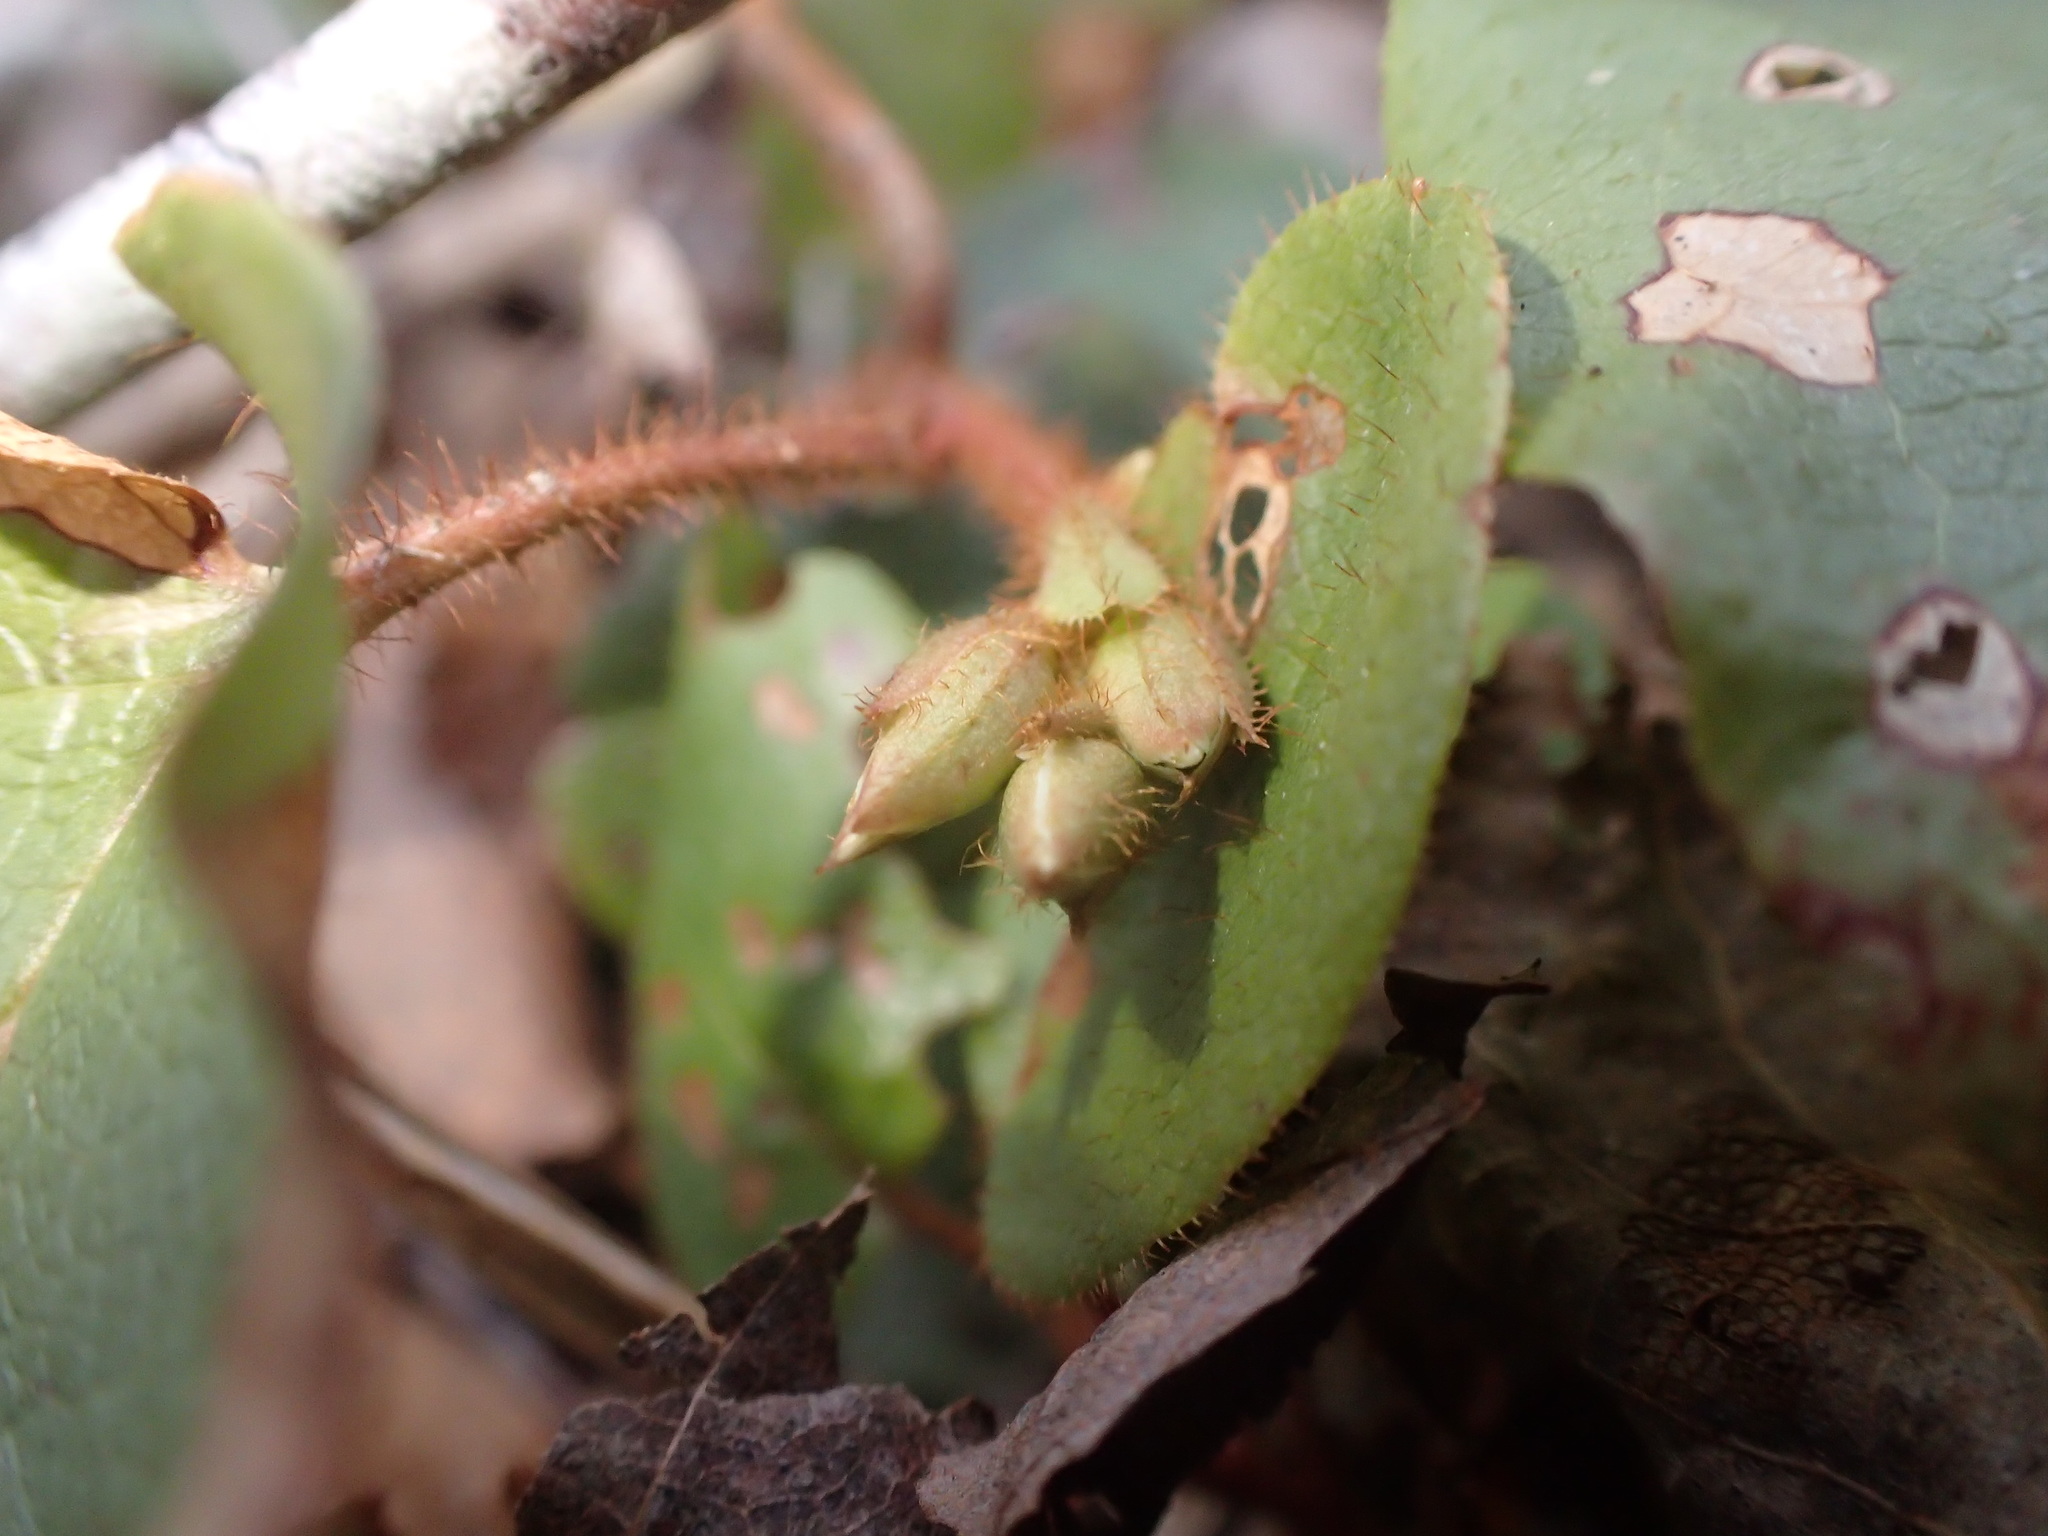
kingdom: Plantae
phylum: Tracheophyta
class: Magnoliopsida
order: Ericales
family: Ericaceae
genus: Epigaea
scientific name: Epigaea repens
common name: Gravelroot
